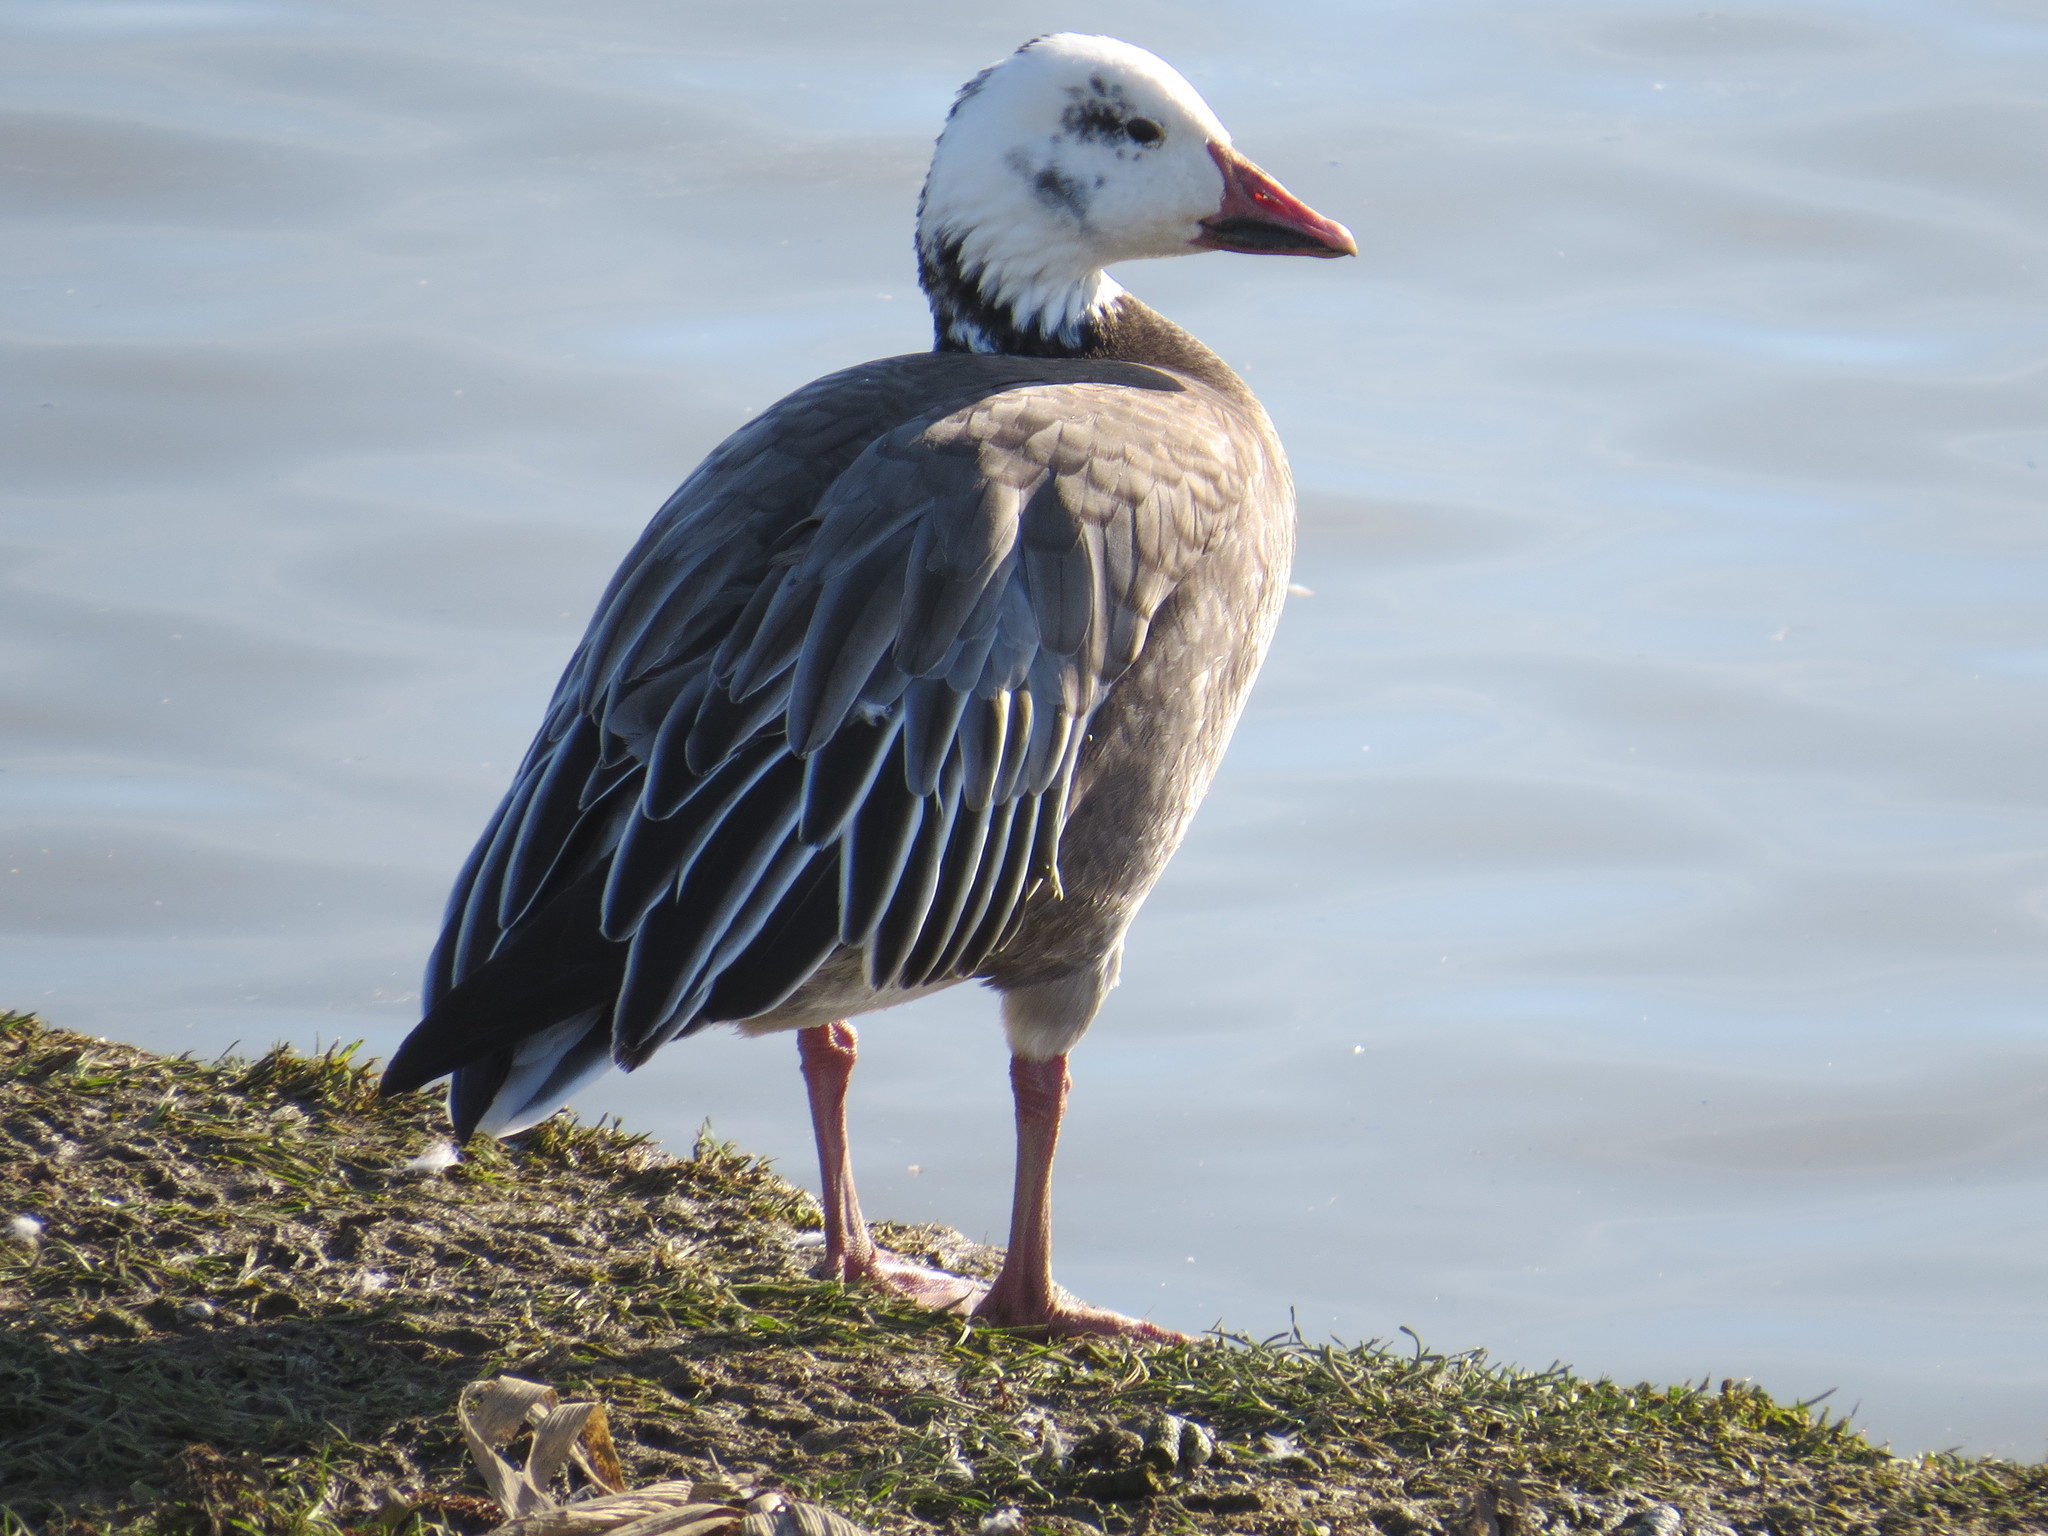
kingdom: Animalia
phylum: Chordata
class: Aves
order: Anseriformes
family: Anatidae
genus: Anser
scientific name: Anser caerulescens
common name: Snow goose
